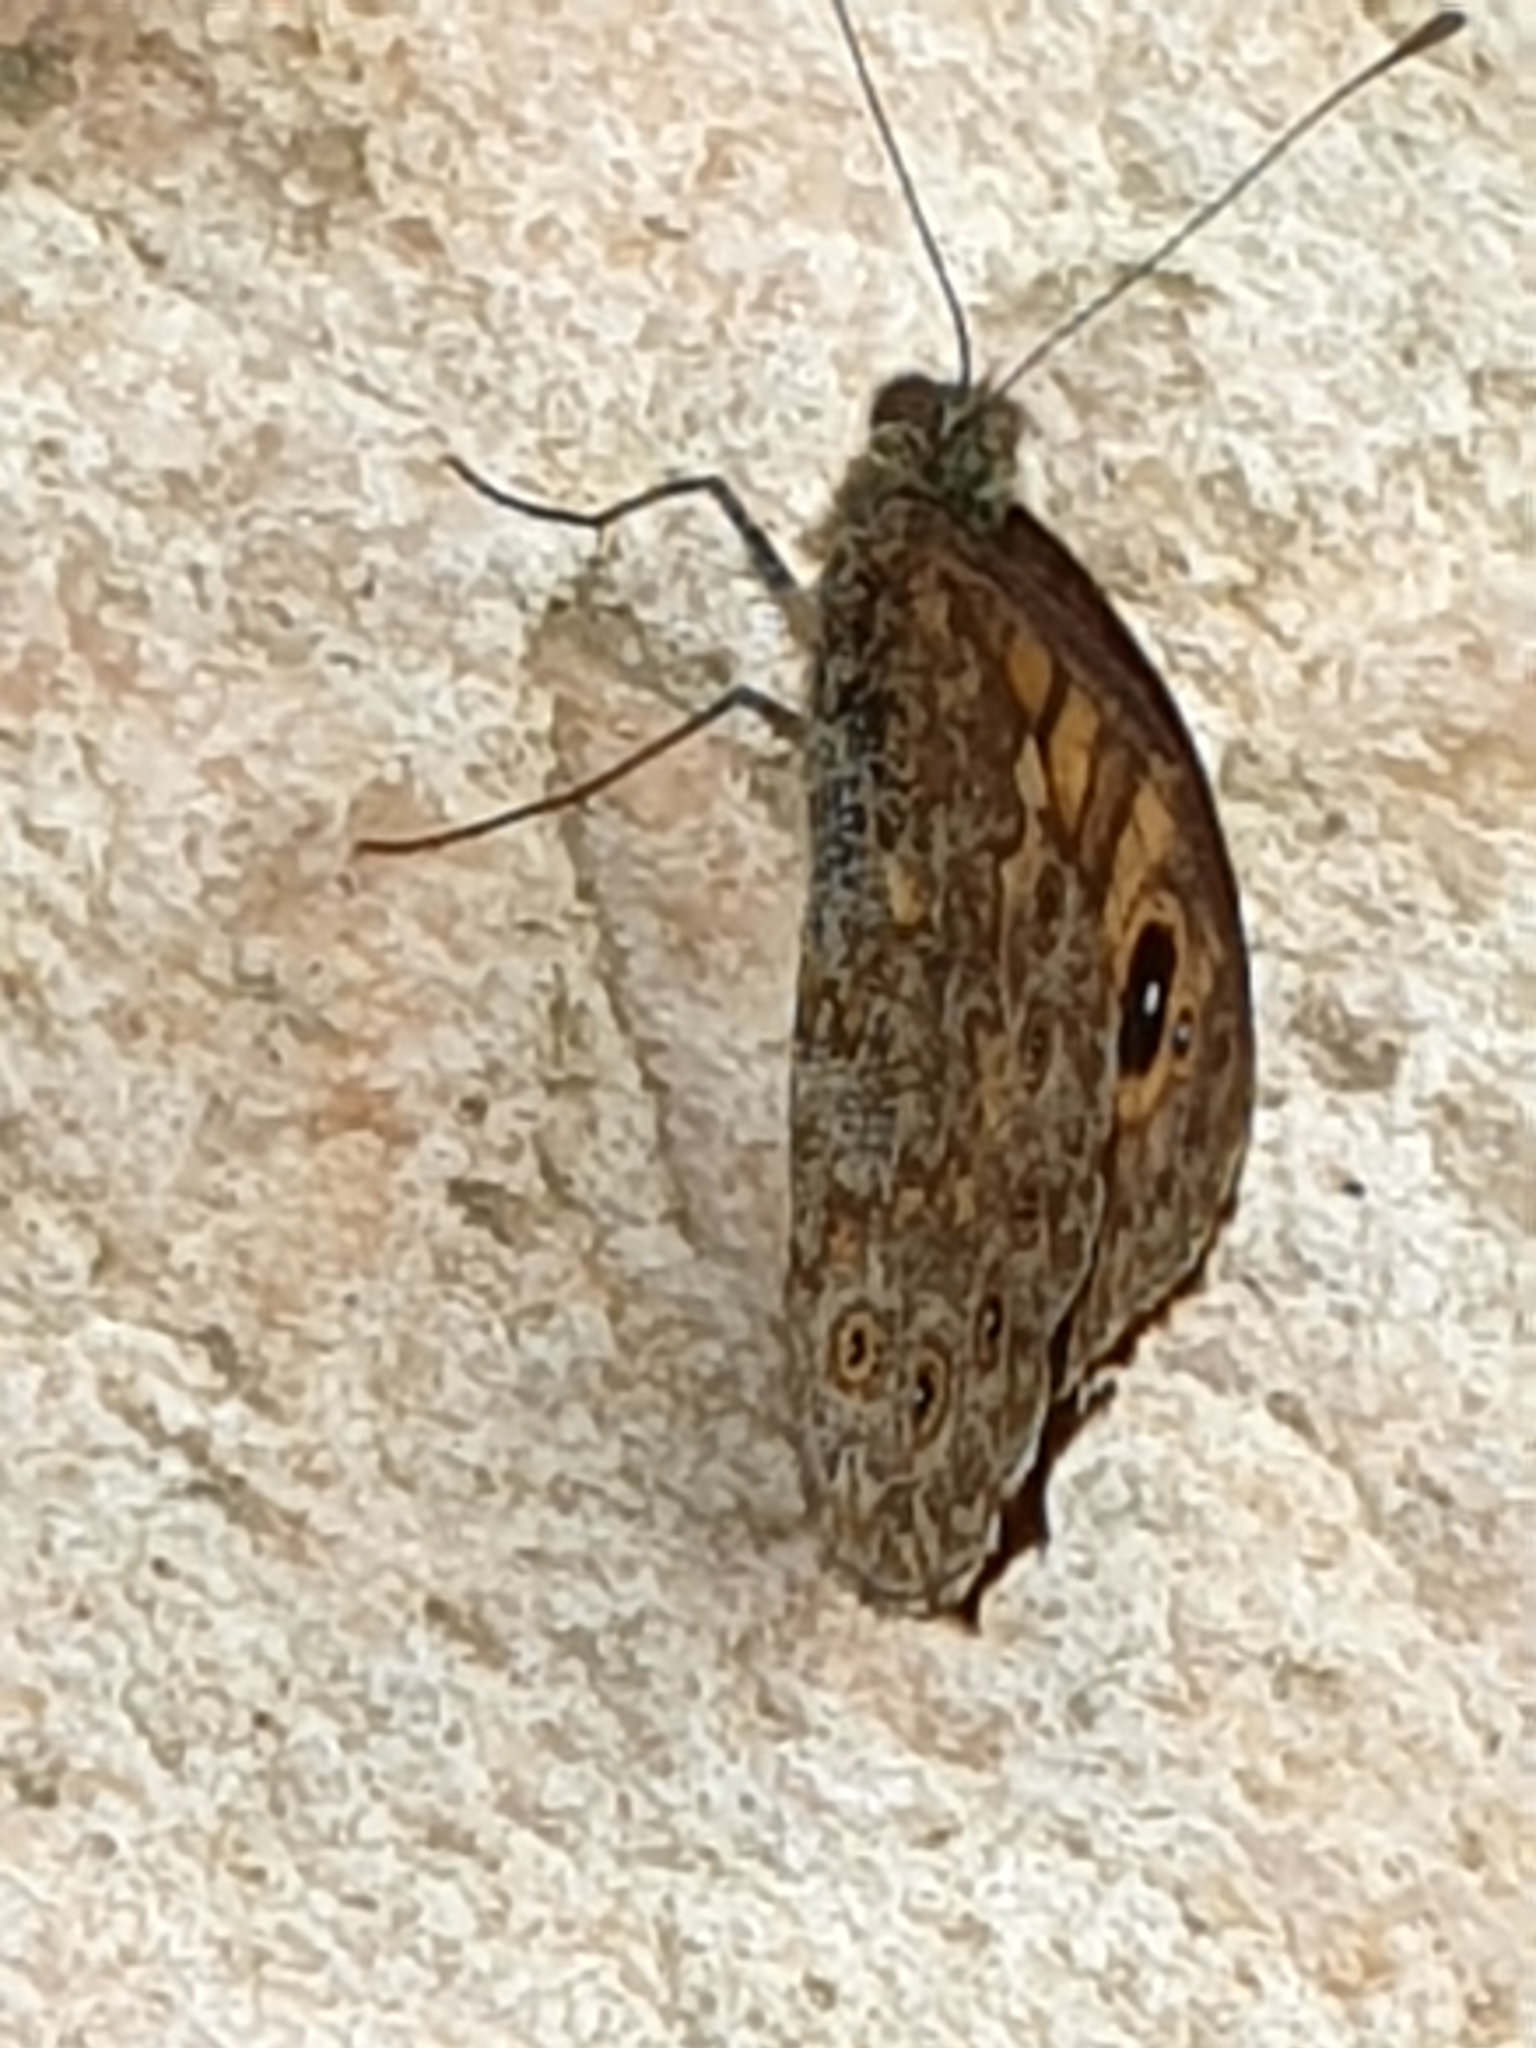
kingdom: Animalia
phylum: Arthropoda
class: Insecta
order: Lepidoptera
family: Nymphalidae
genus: Pararge
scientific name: Pararge Lasiommata megera
